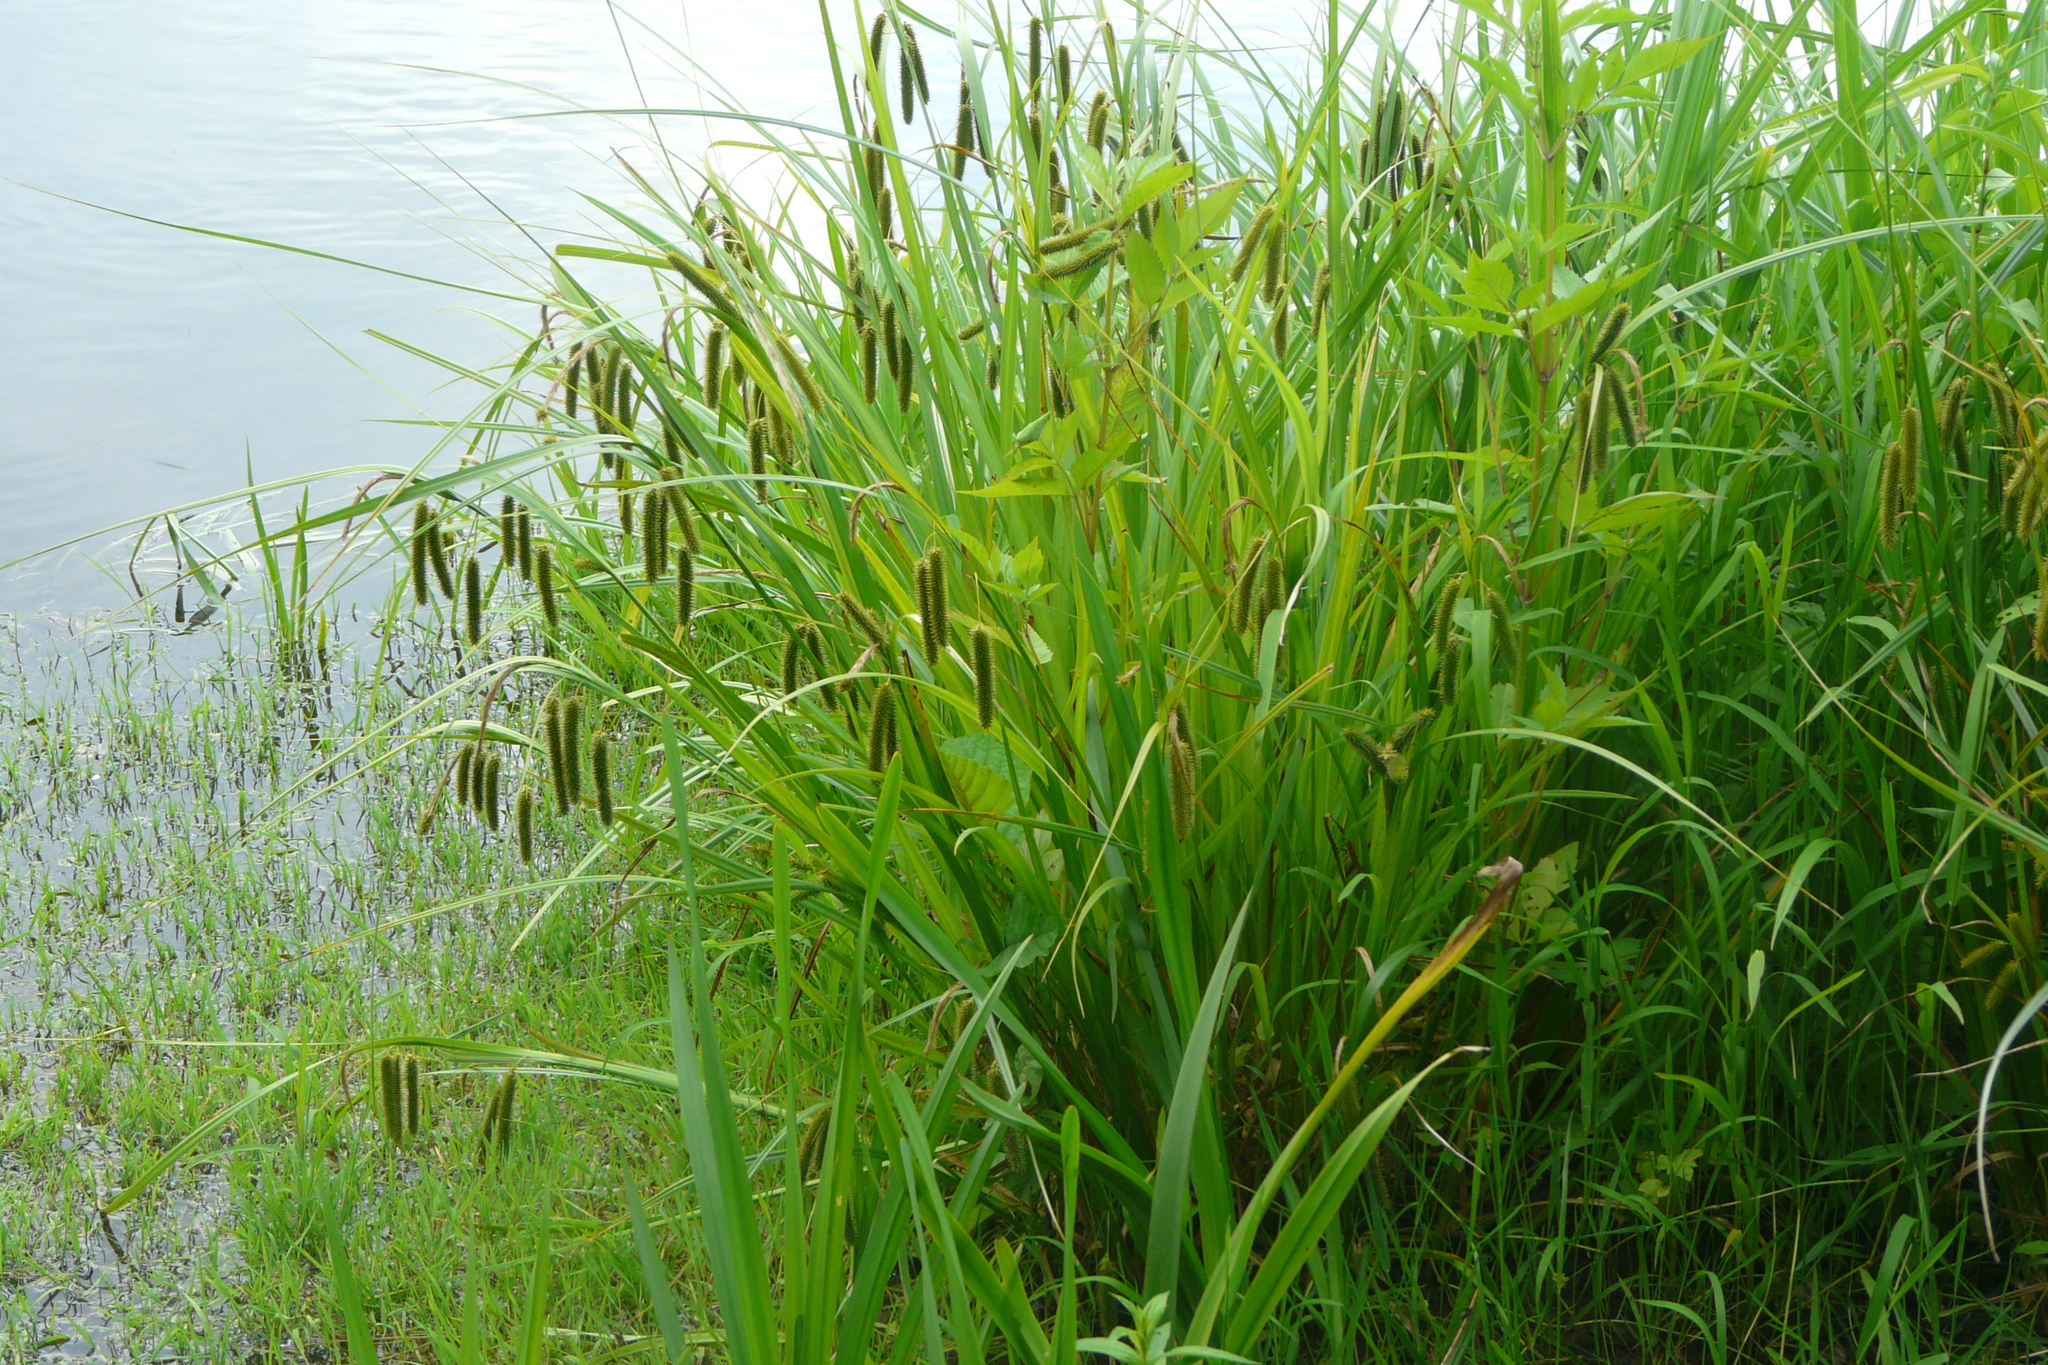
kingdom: Plantae
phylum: Tracheophyta
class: Liliopsida
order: Poales
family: Cyperaceae
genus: Carex
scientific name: Carex pseudocyperus
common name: Cyperus sedge
